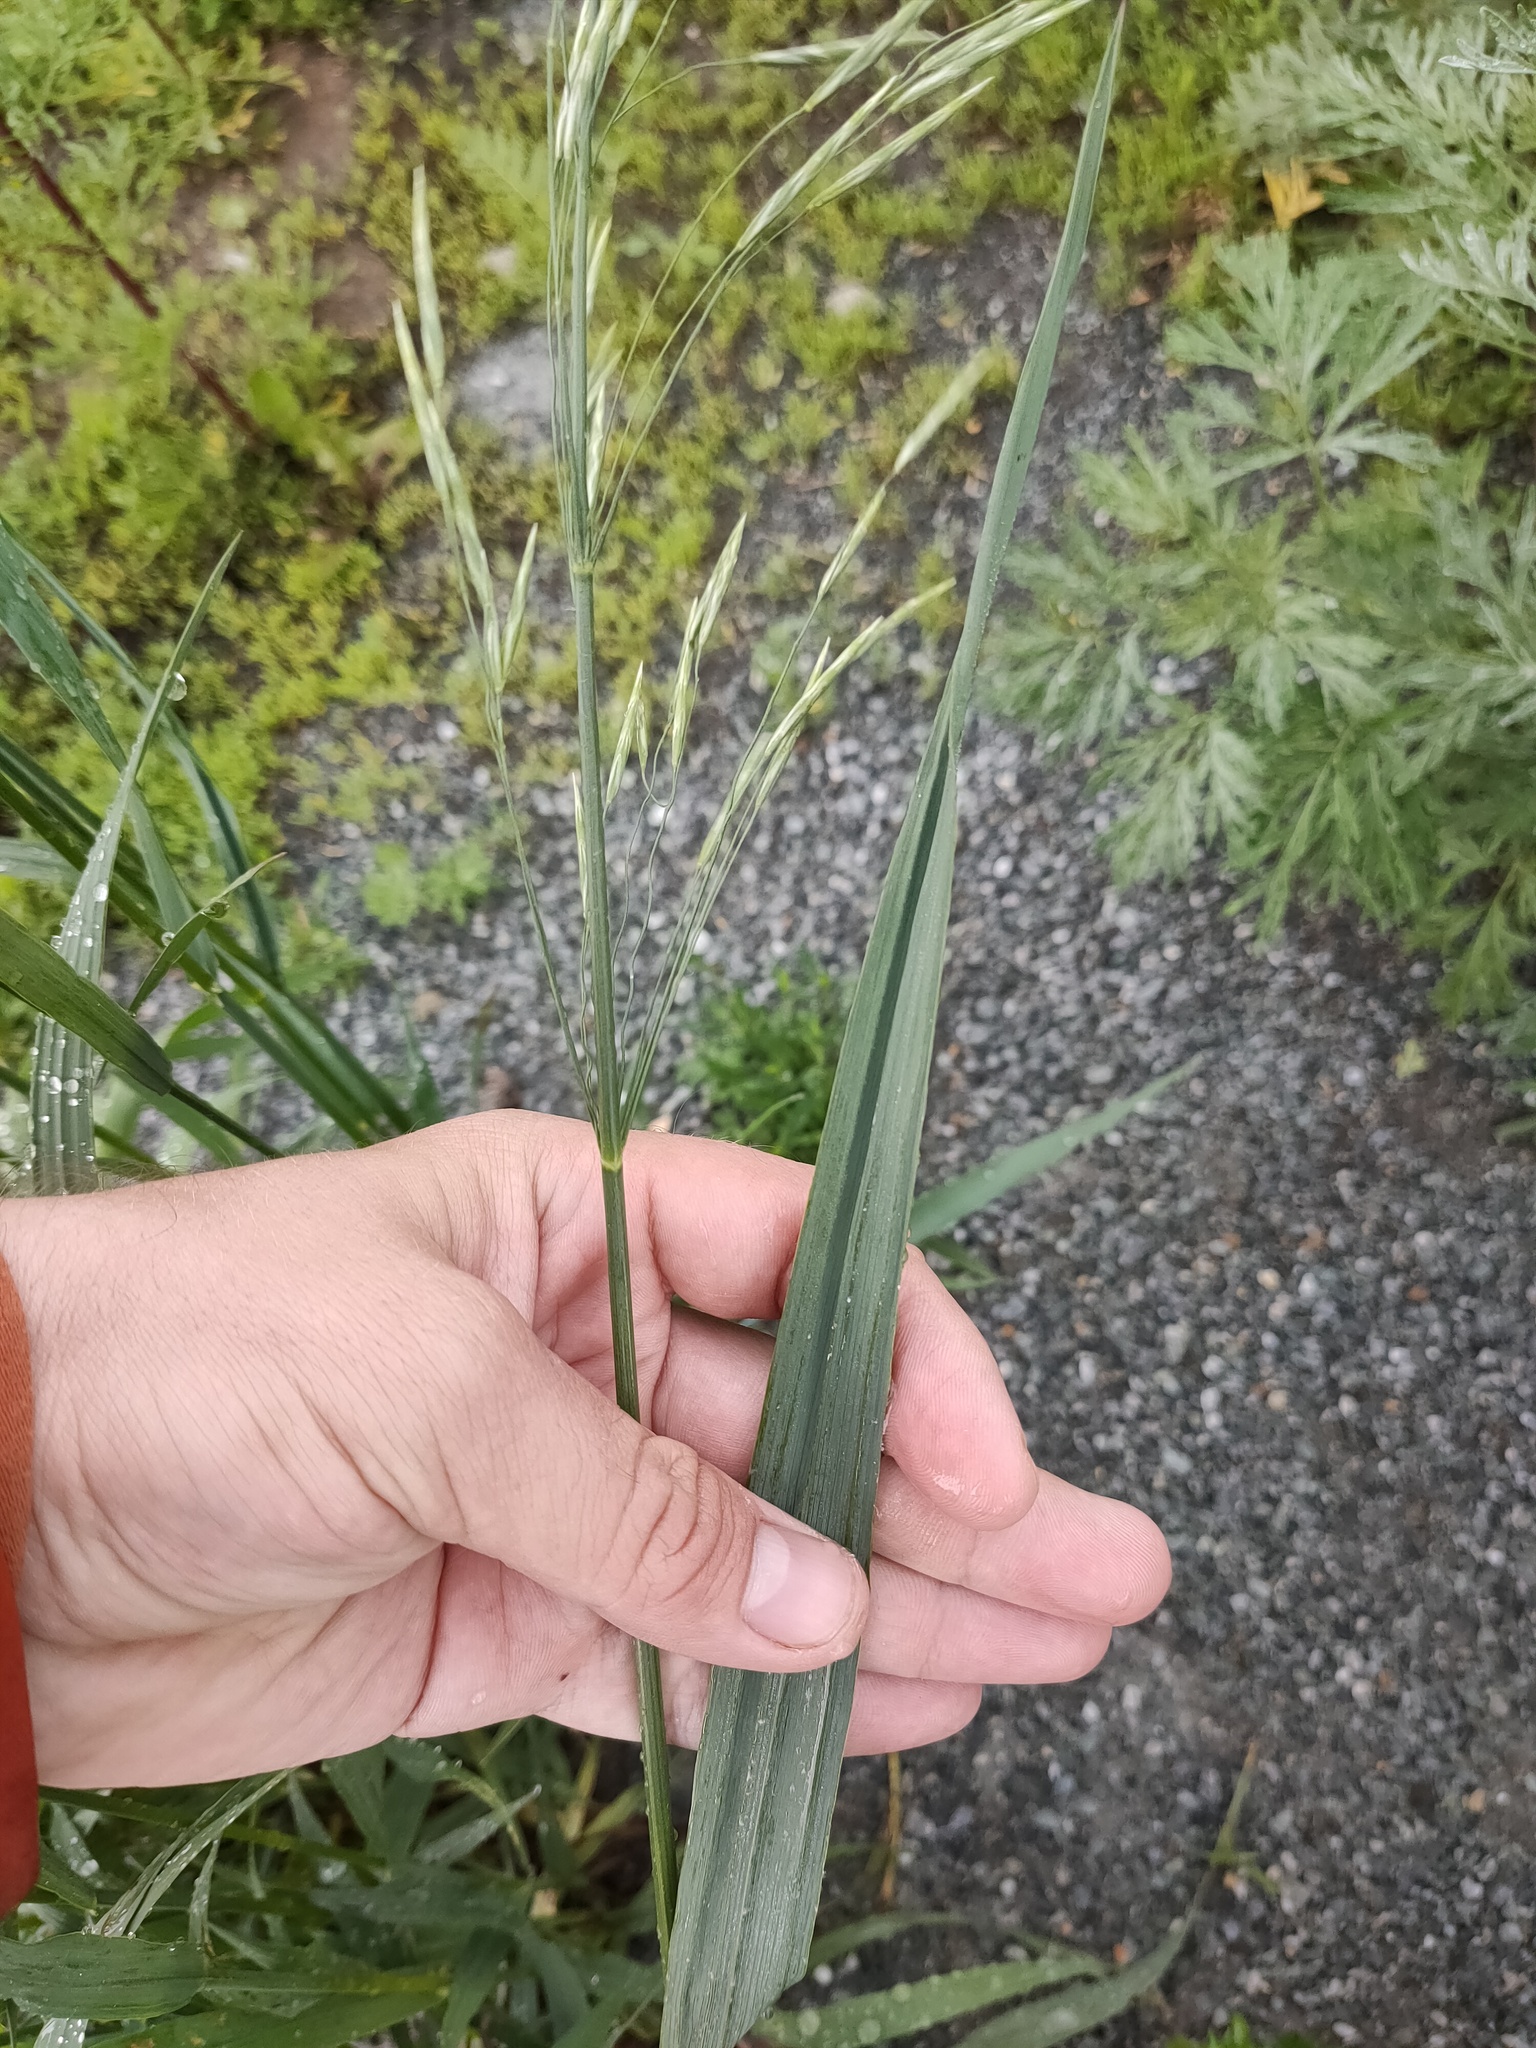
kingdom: Plantae
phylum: Tracheophyta
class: Liliopsida
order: Poales
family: Poaceae
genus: Bromus
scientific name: Bromus inermis
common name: Smooth brome
